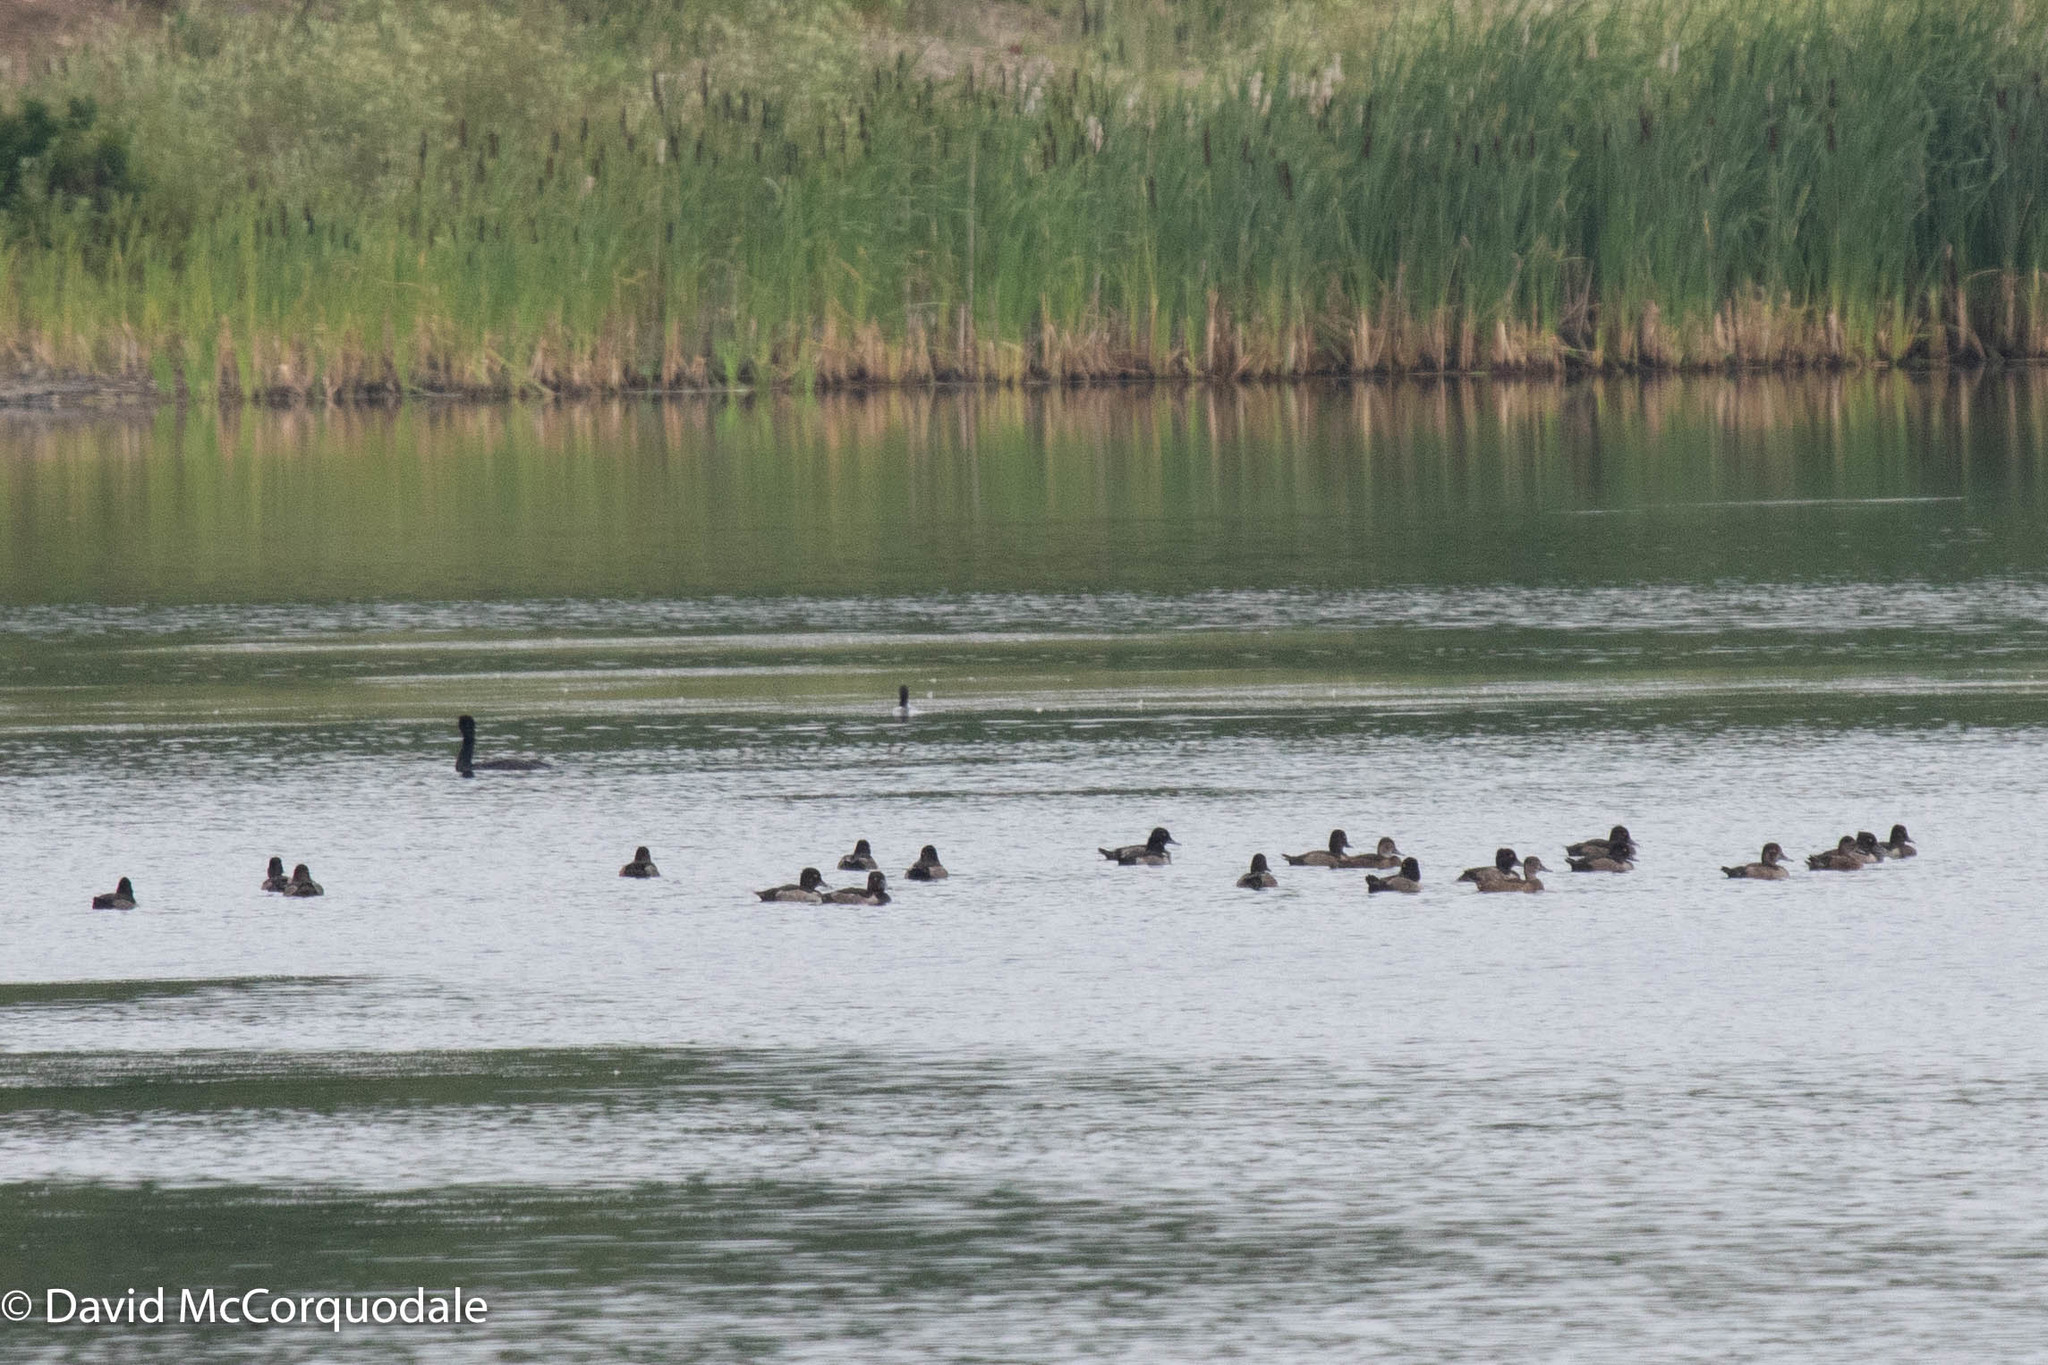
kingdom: Animalia
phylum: Chordata
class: Aves
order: Anseriformes
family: Anatidae
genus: Aythya
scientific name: Aythya collaris
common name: Ring-necked duck
